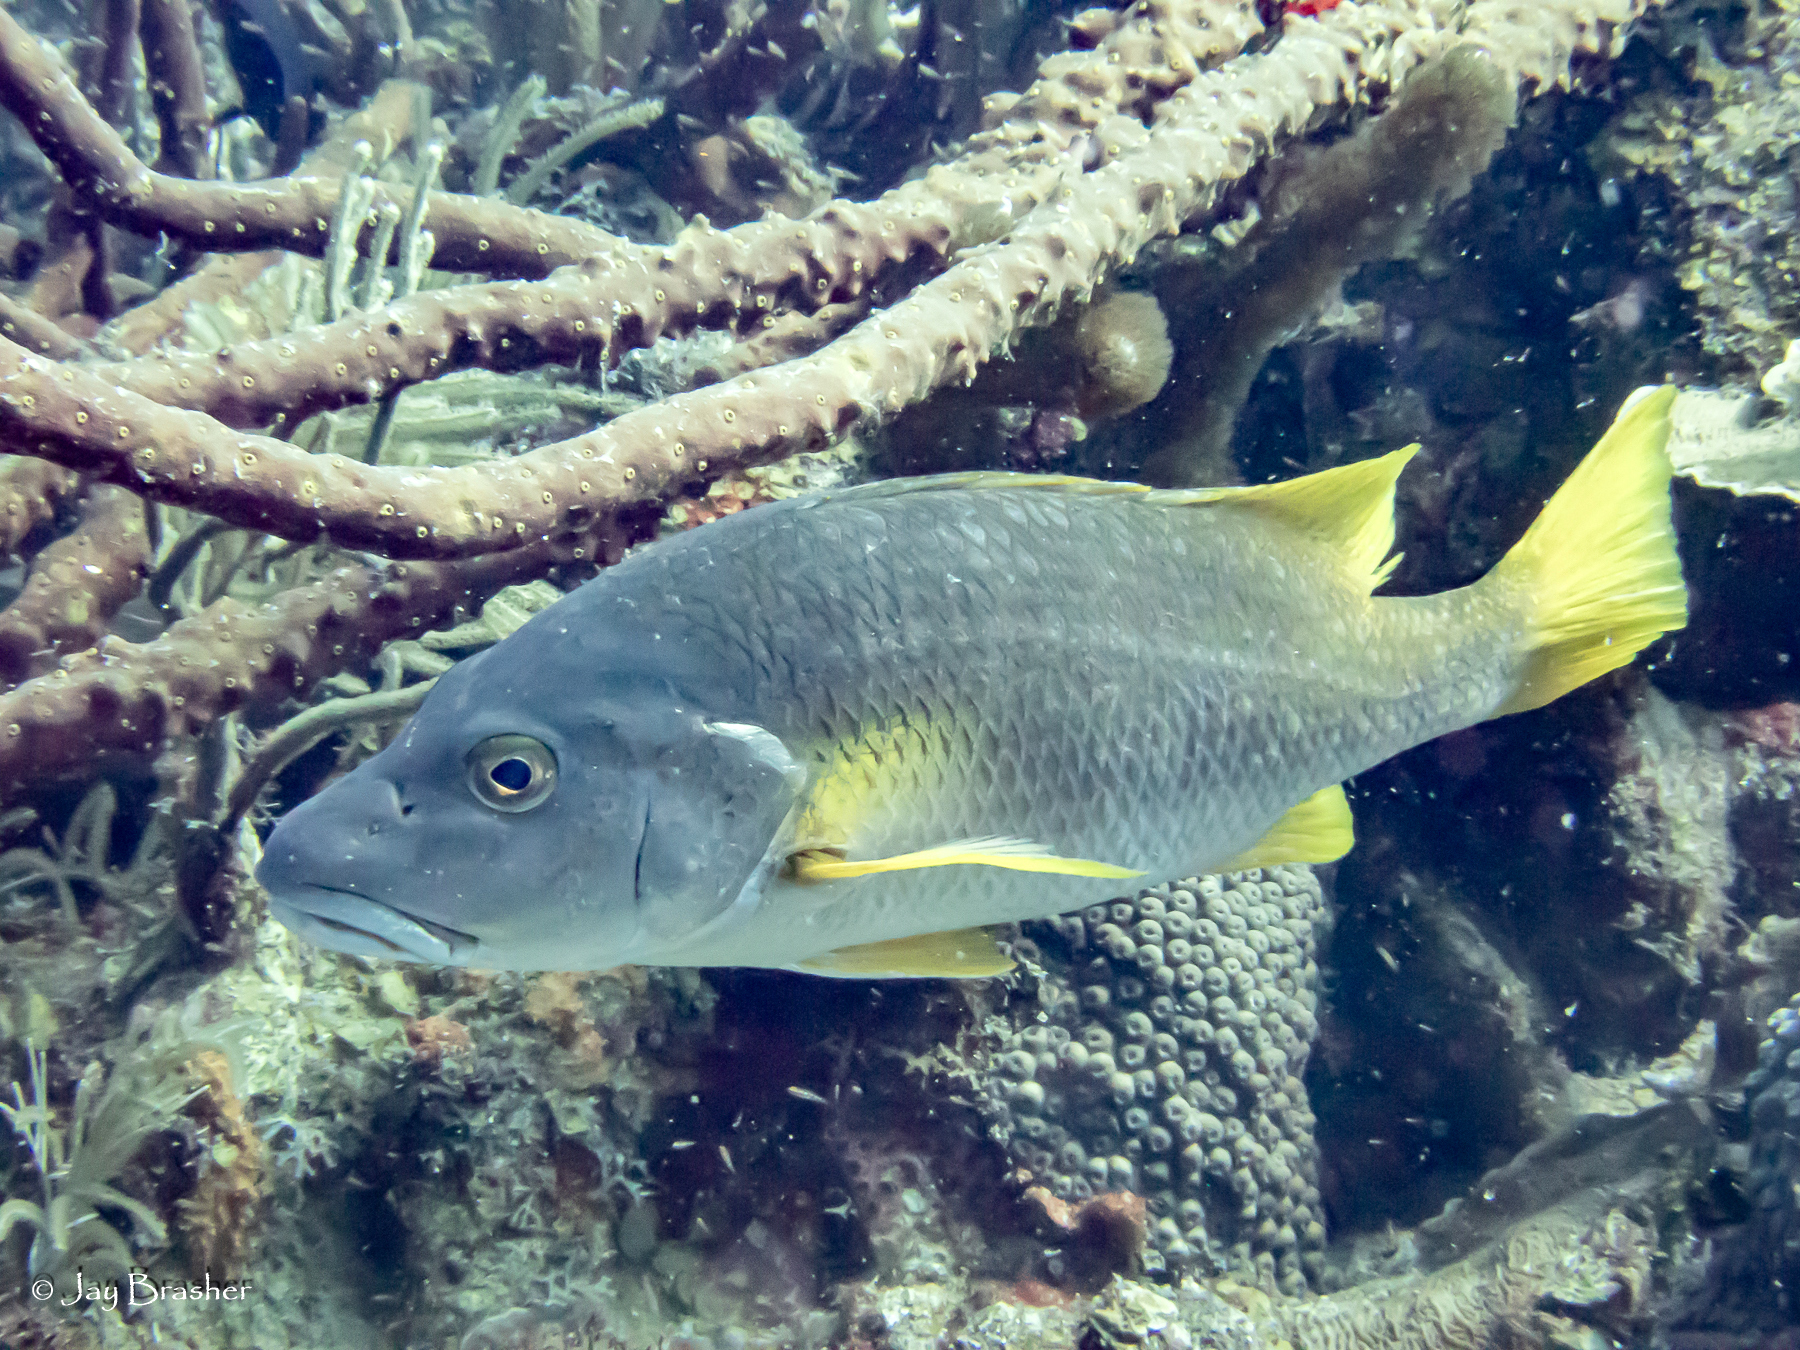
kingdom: Animalia
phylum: Chordata
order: Perciformes
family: Lutjanidae
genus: Lutjanus
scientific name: Lutjanus apodus
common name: Schoolmaster
